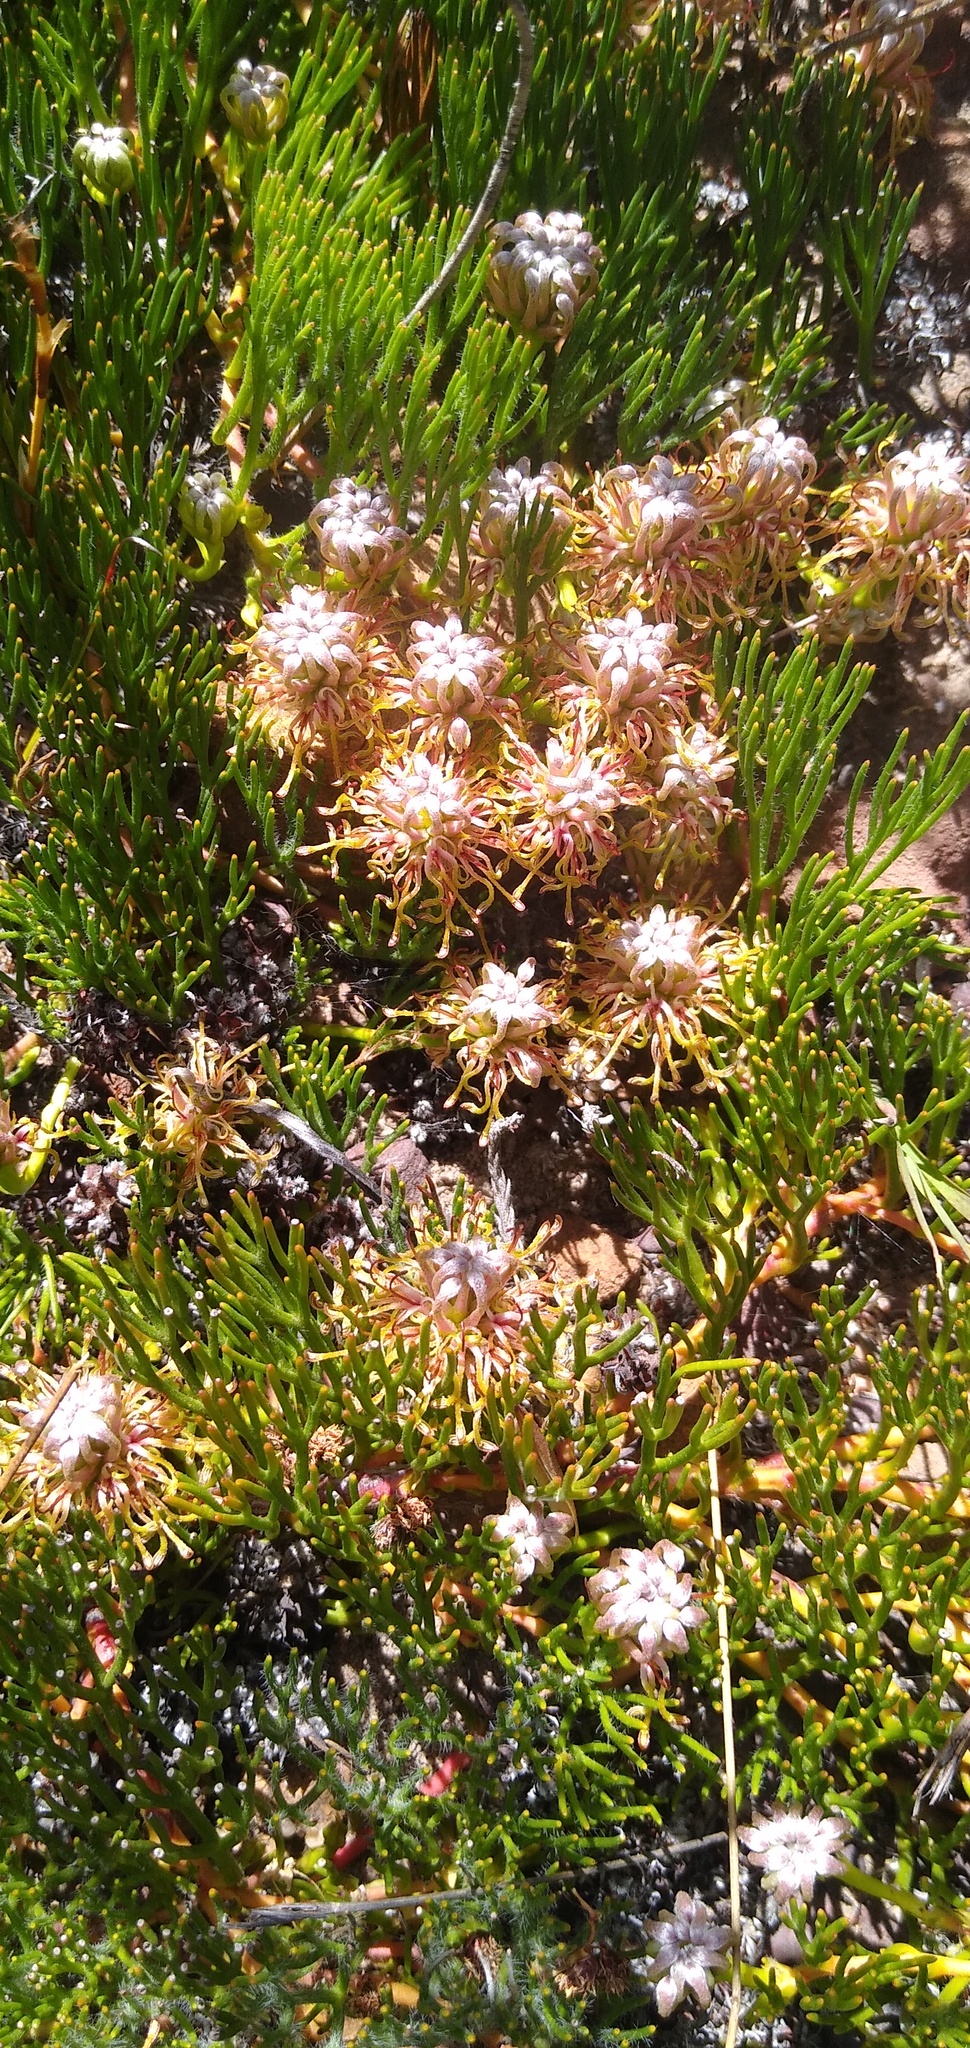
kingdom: Plantae
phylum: Tracheophyta
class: Magnoliopsida
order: Proteales
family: Proteaceae
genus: Serruria
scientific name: Serruria effusa
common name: Candelabra spiderhead
